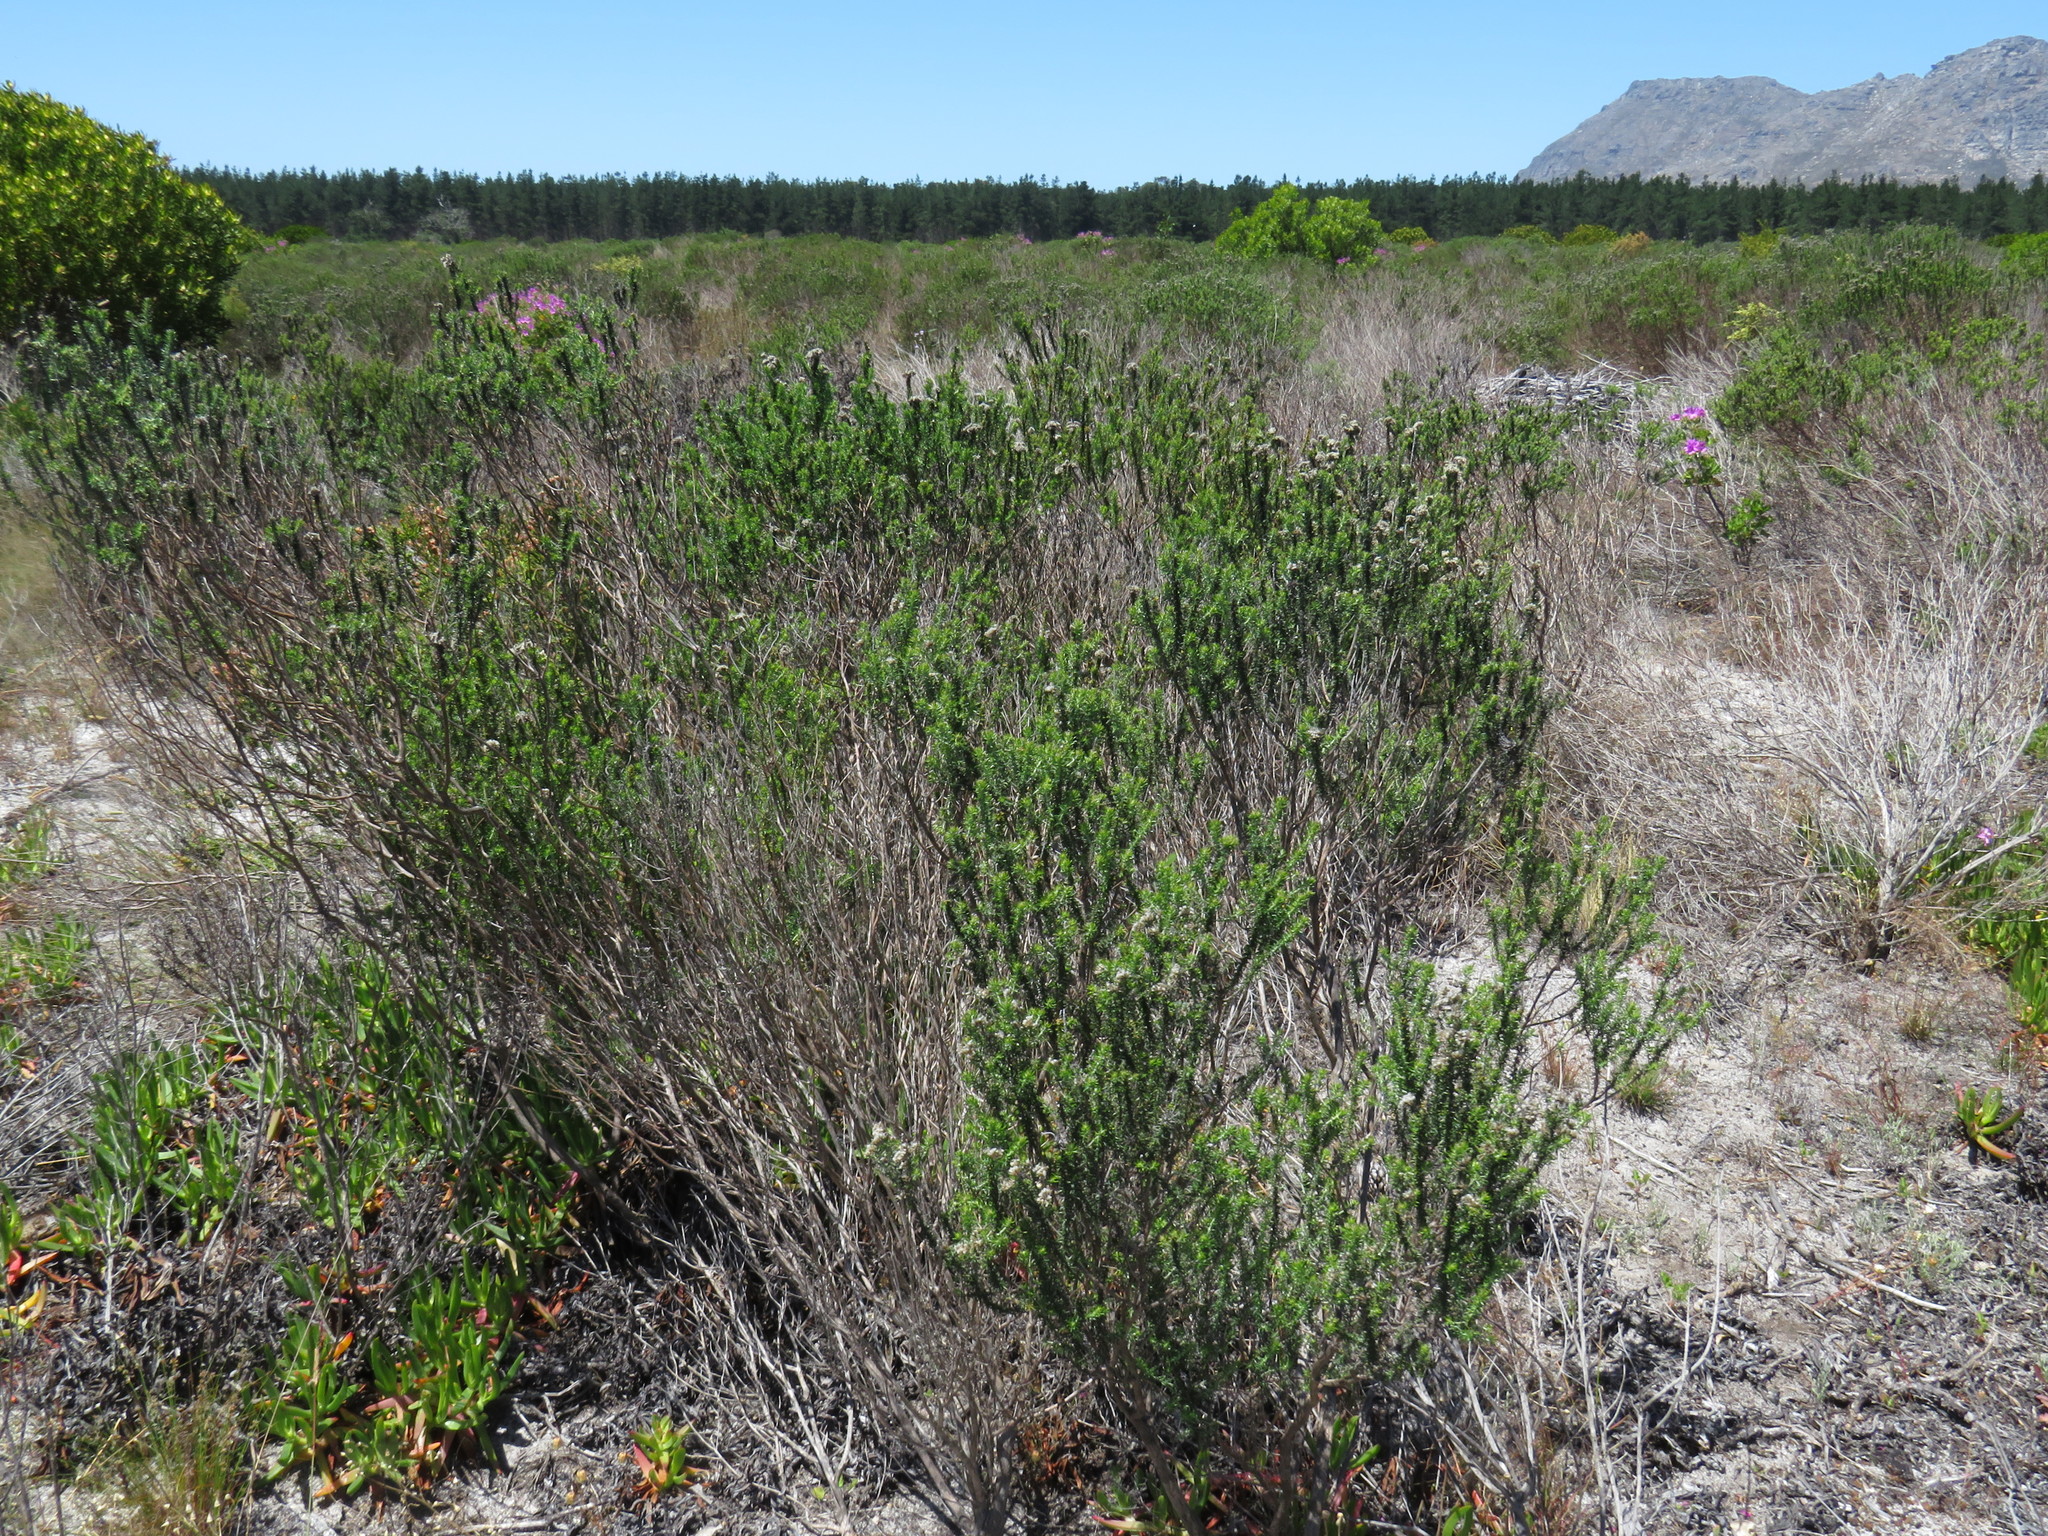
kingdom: Plantae
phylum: Tracheophyta
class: Magnoliopsida
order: Asterales
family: Asteraceae
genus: Metalasia
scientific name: Metalasia densa
